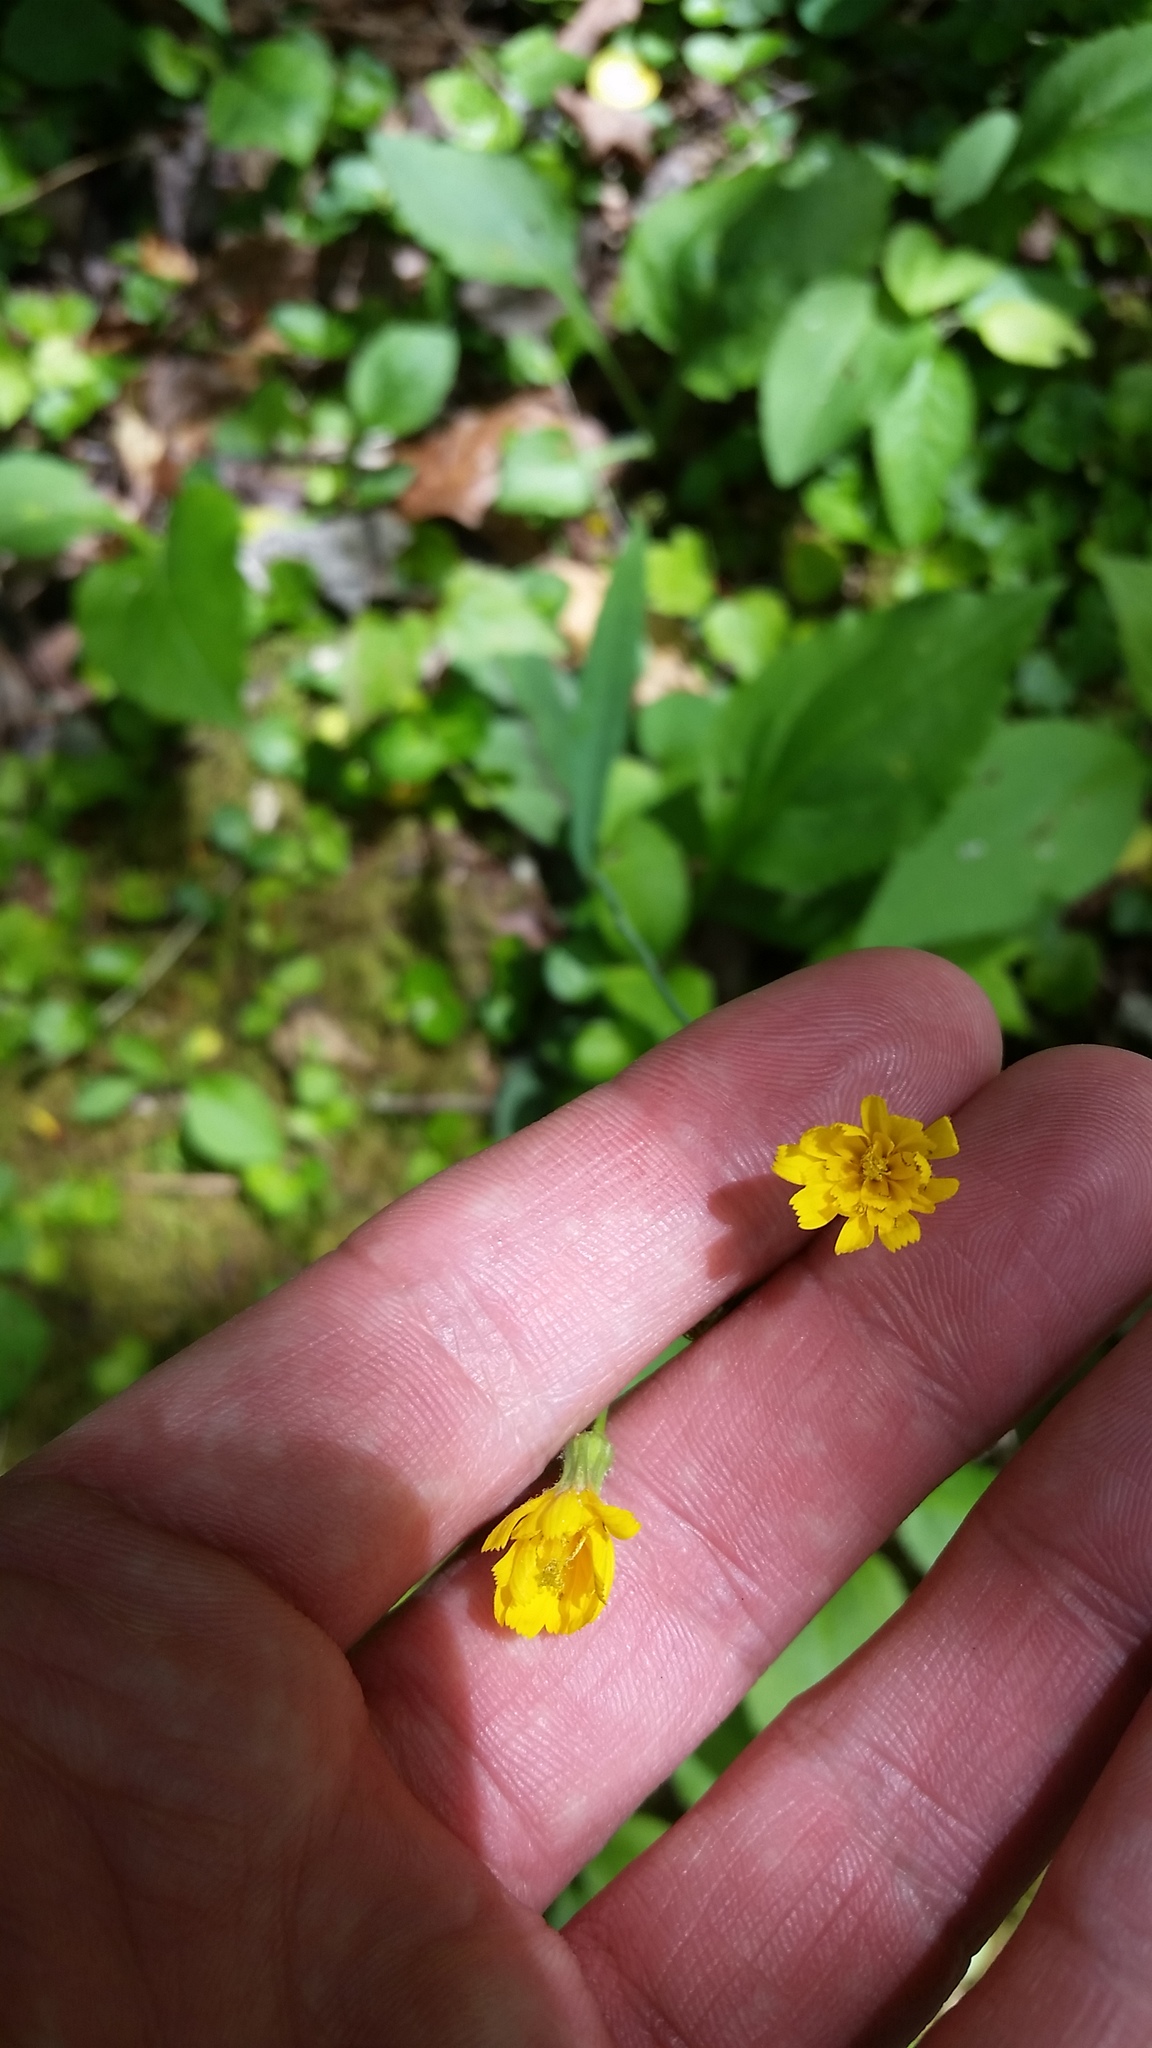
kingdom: Plantae
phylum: Tracheophyta
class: Magnoliopsida
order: Asterales
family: Asteraceae
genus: Hieracium
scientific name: Hieracium venosum
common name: Rattlesnake hawkweed
